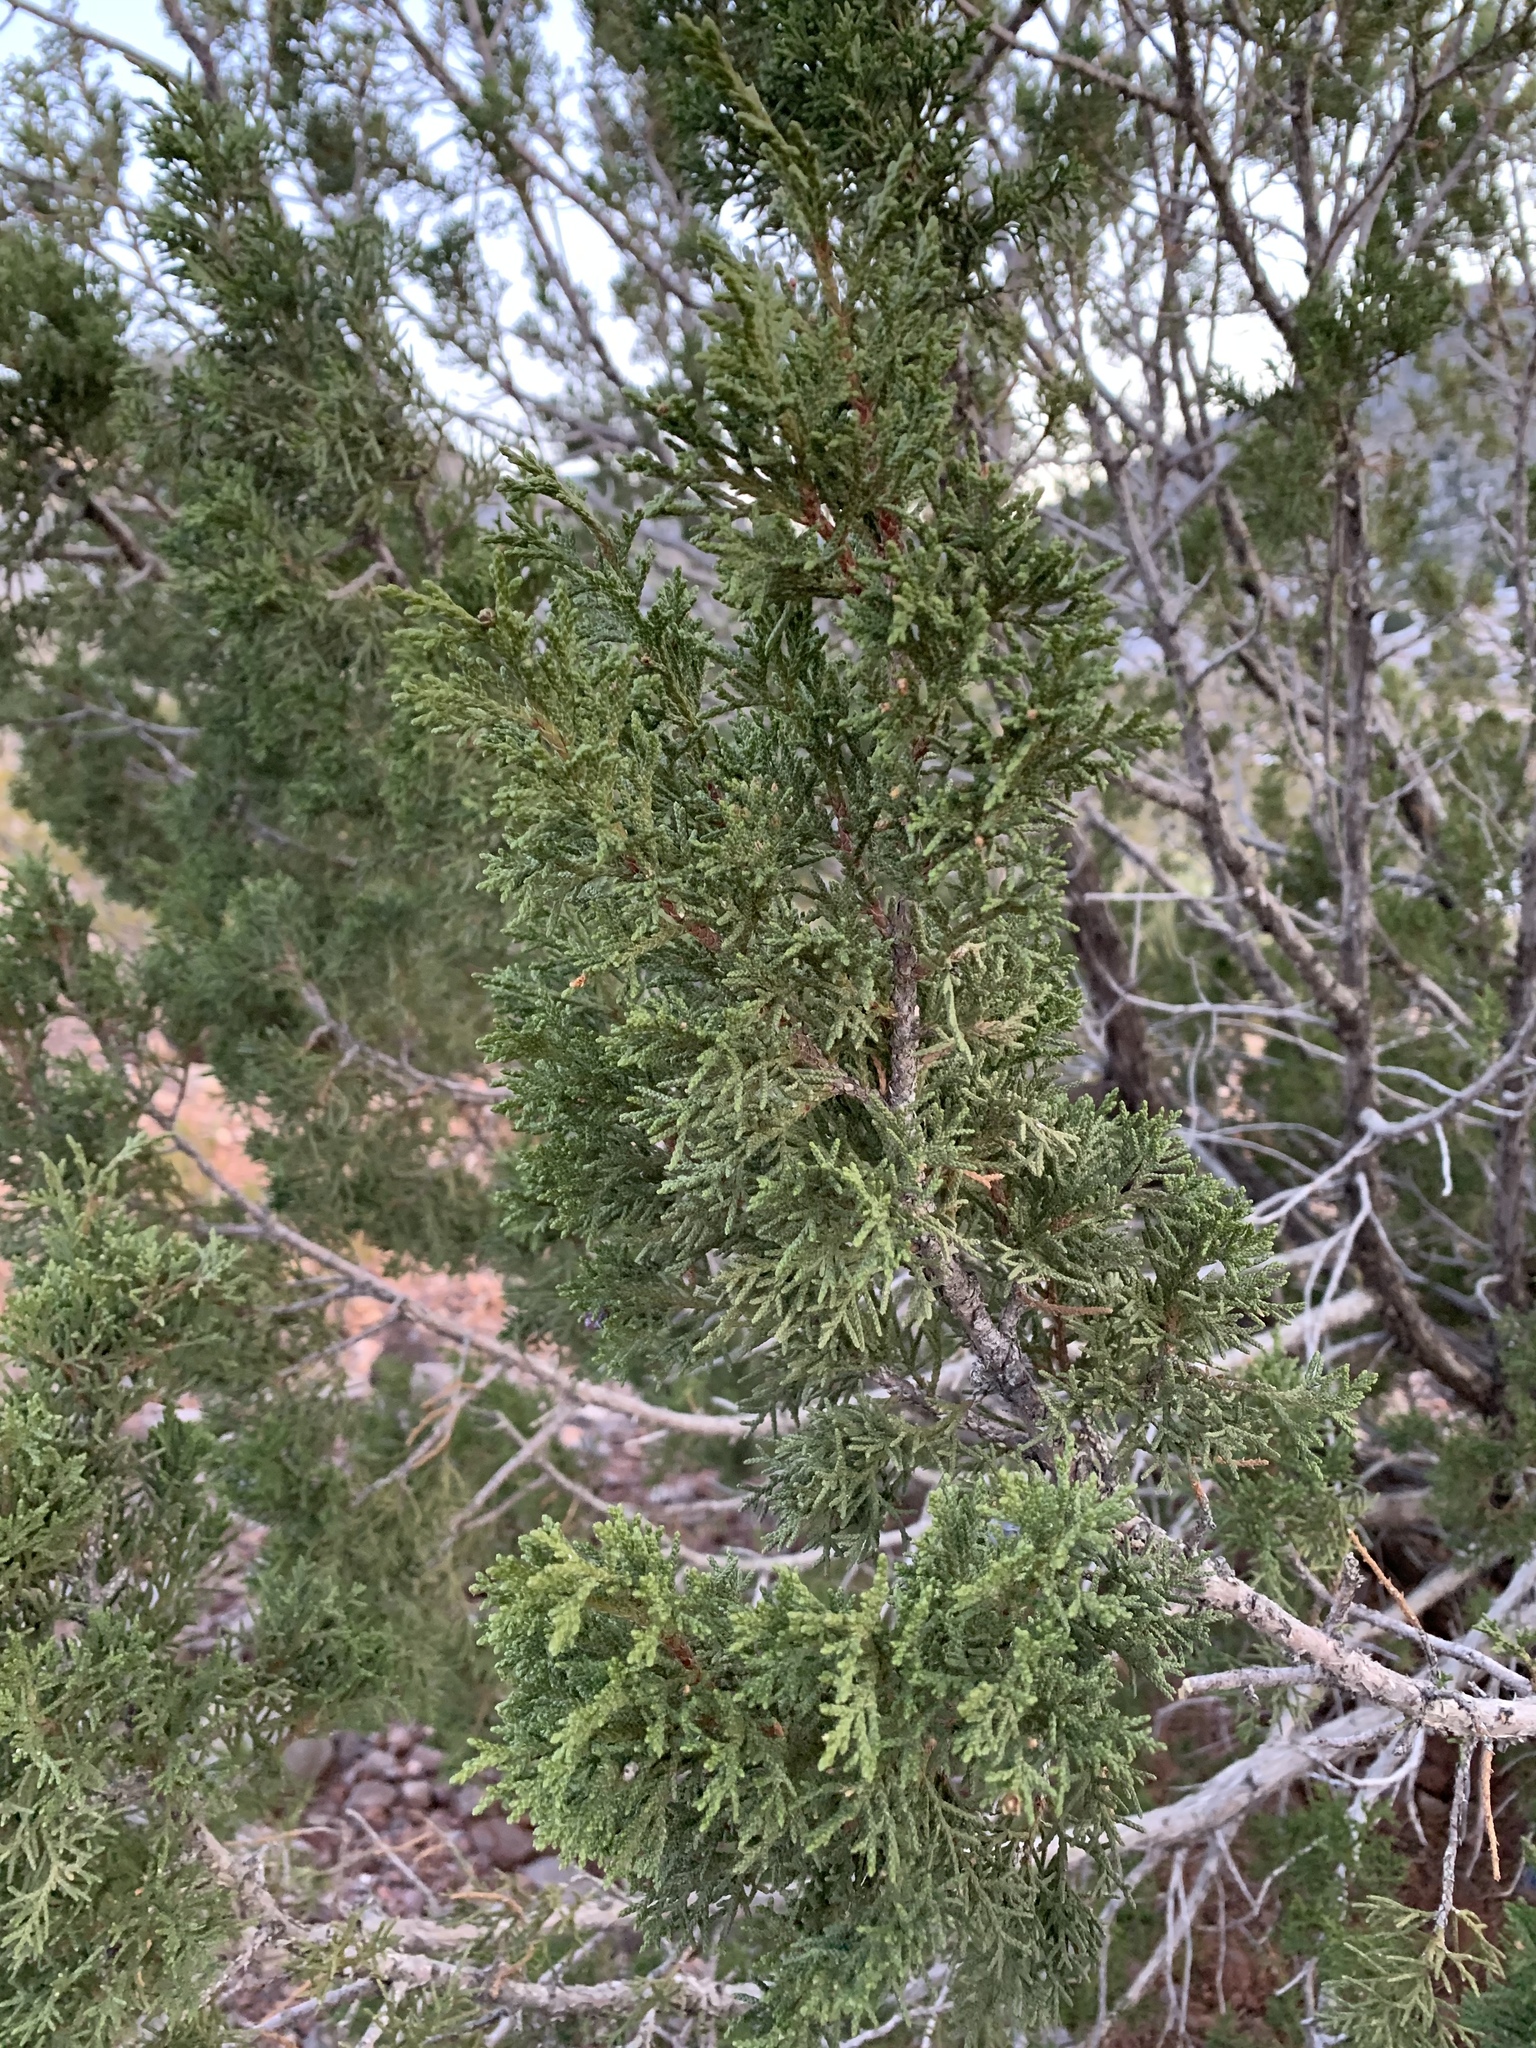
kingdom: Plantae
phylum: Tracheophyta
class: Pinopsida
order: Pinales
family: Cupressaceae
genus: Juniperus
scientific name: Juniperus monosperma
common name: One-seed juniper
